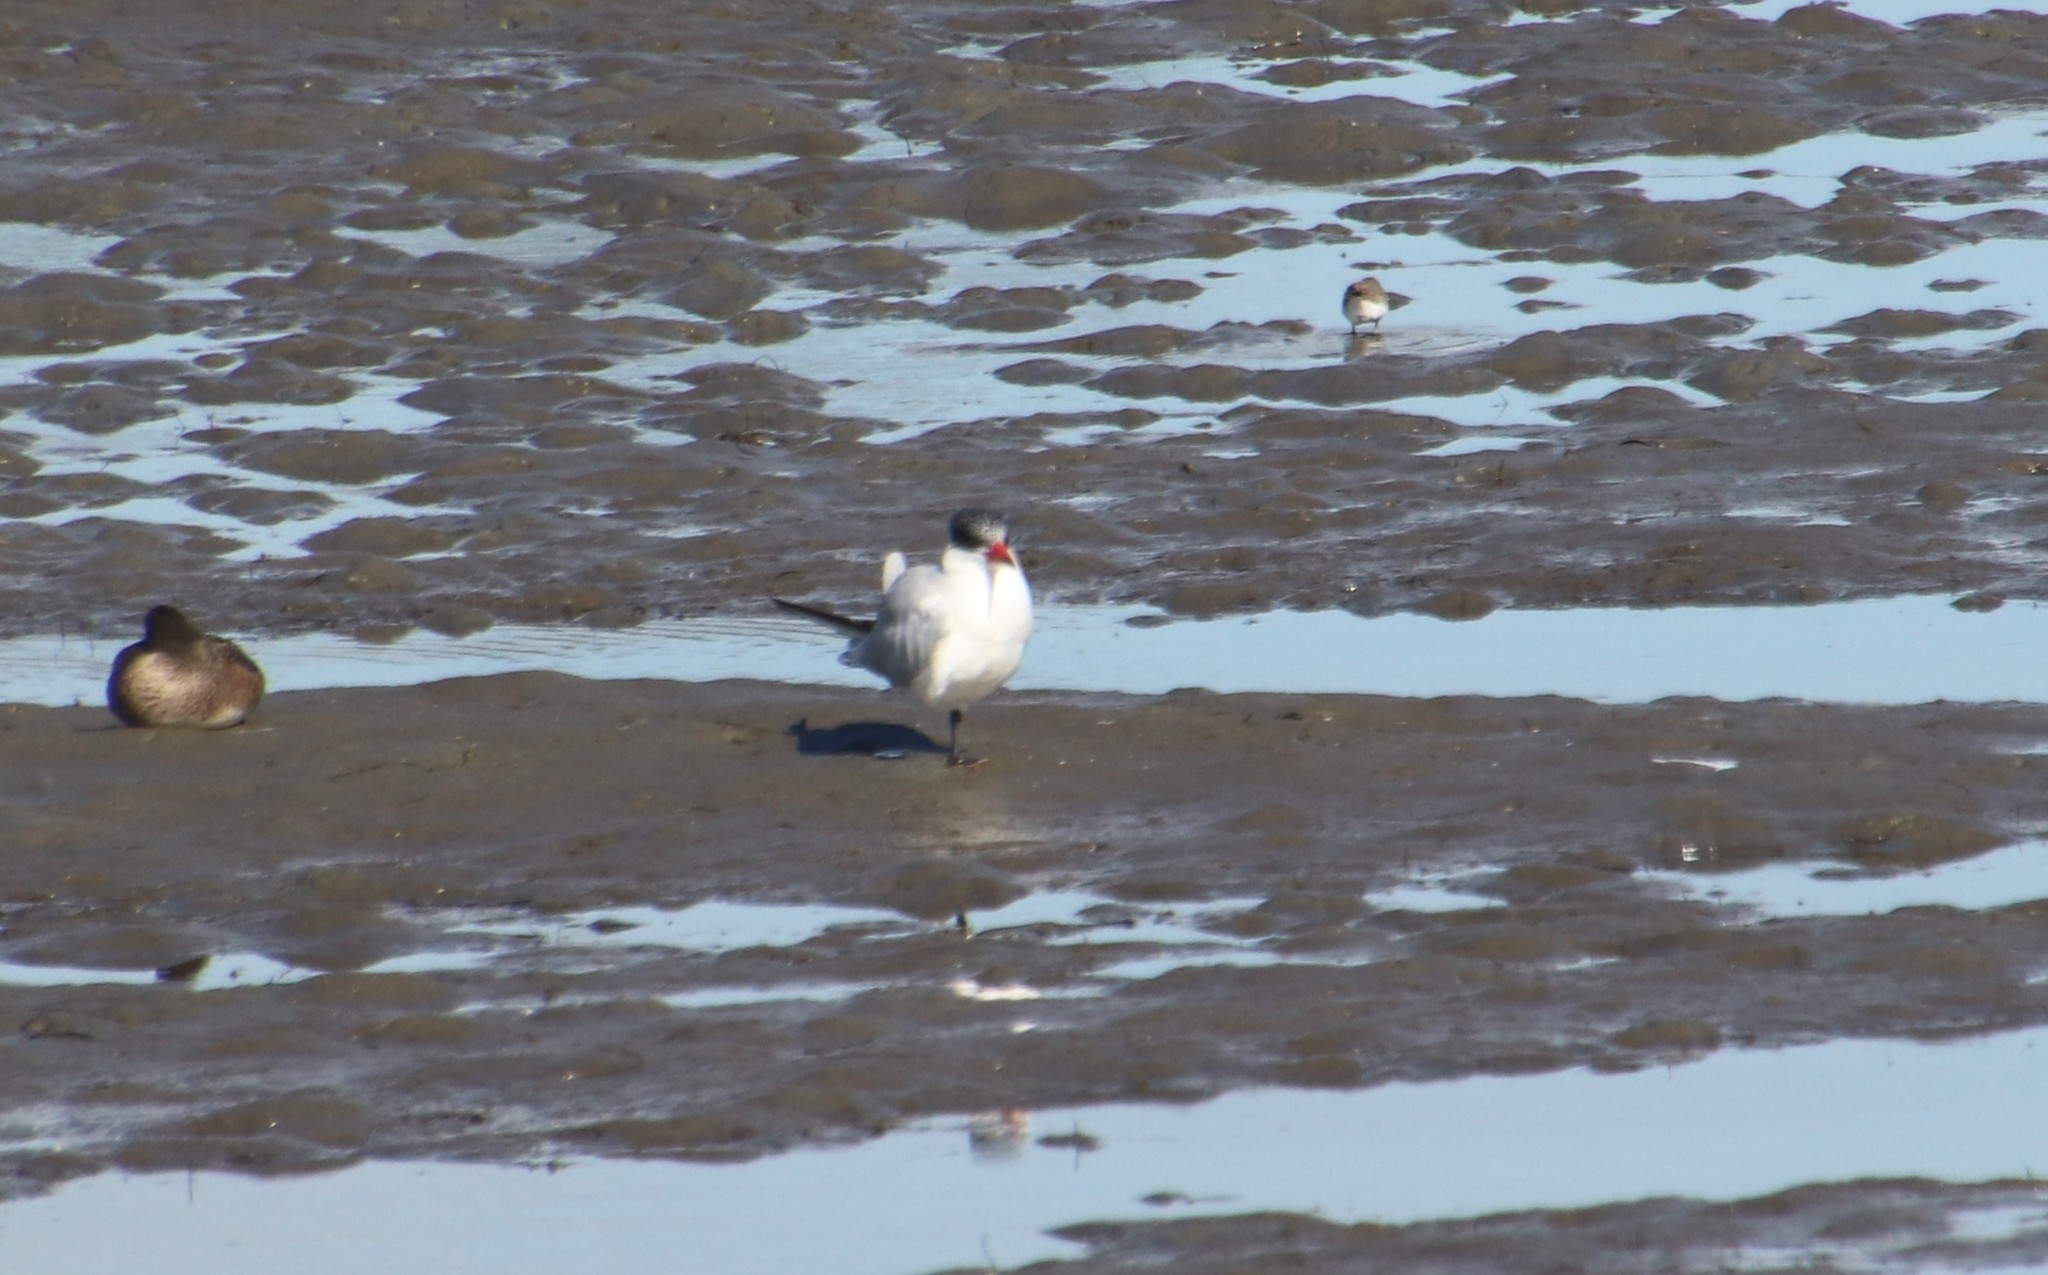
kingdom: Animalia
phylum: Chordata
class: Aves
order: Charadriiformes
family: Laridae
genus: Hydroprogne
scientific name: Hydroprogne caspia
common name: Caspian tern
